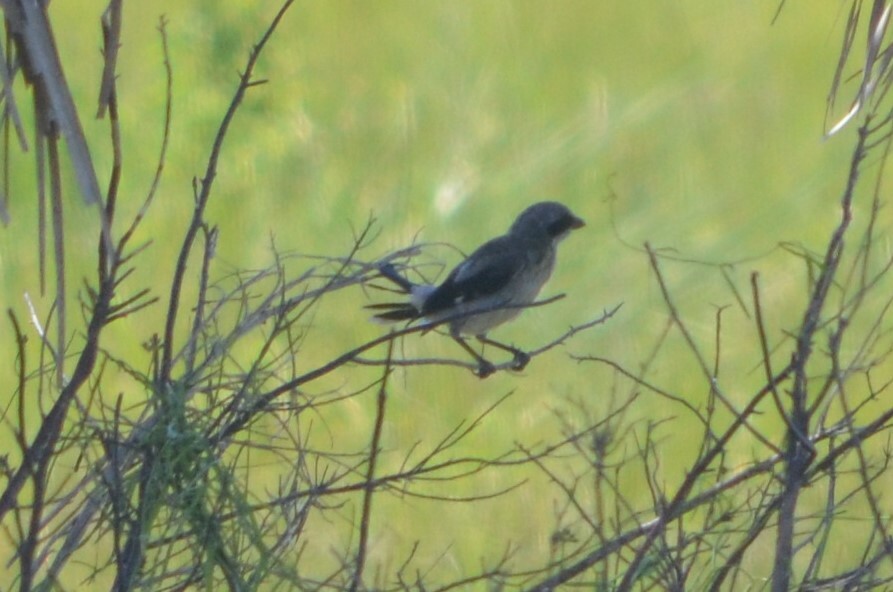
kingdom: Animalia
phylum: Chordata
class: Aves
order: Passeriformes
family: Laniidae
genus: Lanius
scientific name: Lanius ludovicianus
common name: Loggerhead shrike
